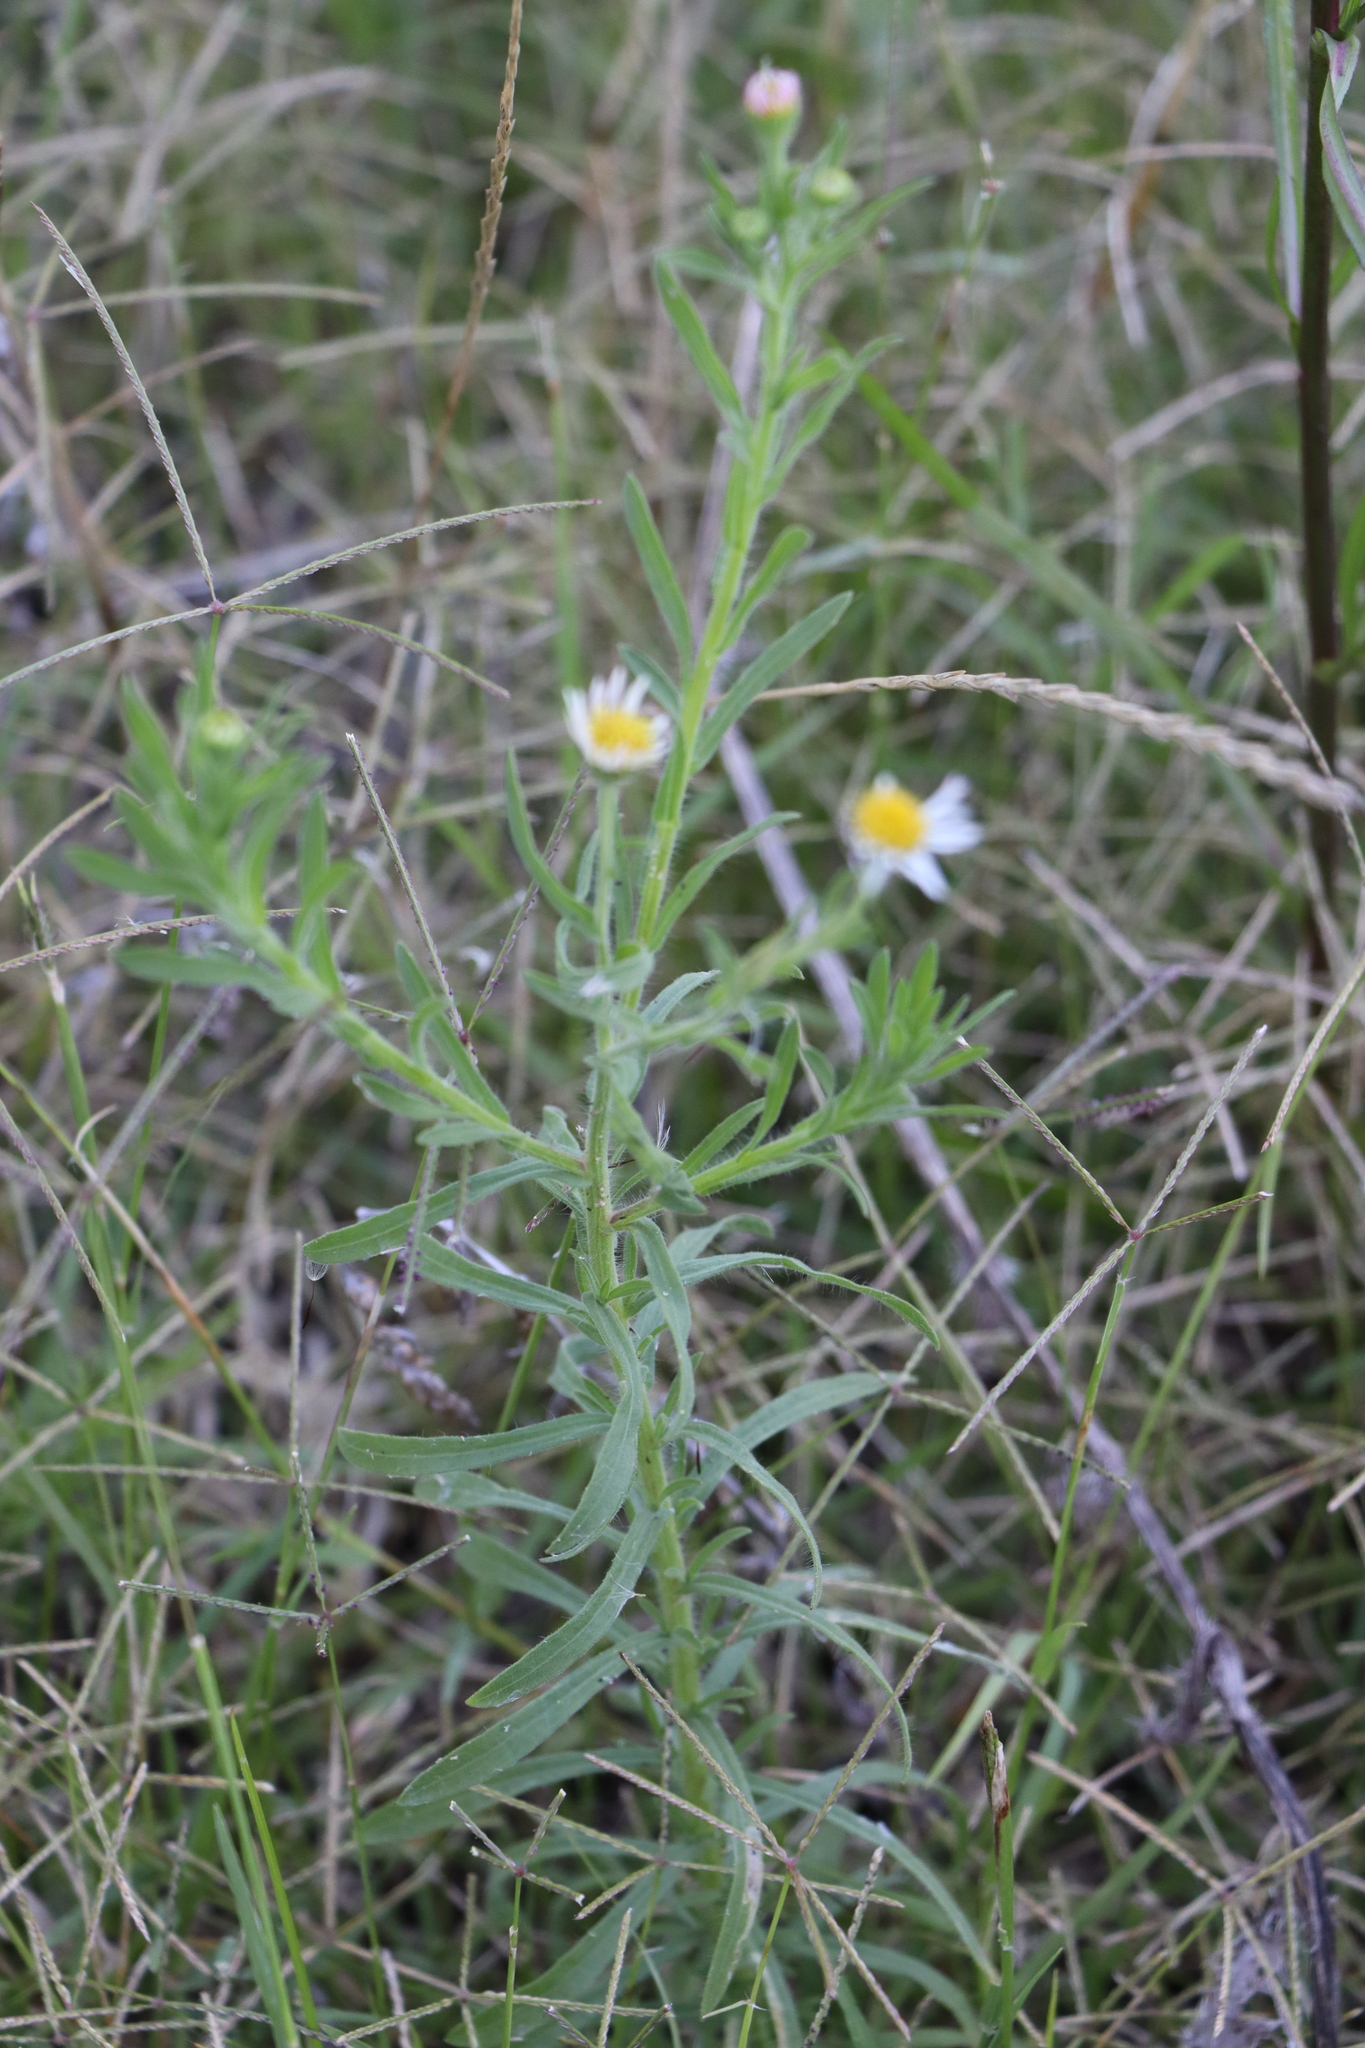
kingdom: Plantae
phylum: Tracheophyta
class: Magnoliopsida
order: Asterales
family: Asteraceae
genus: Hysterionica
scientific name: Hysterionica resinosa
